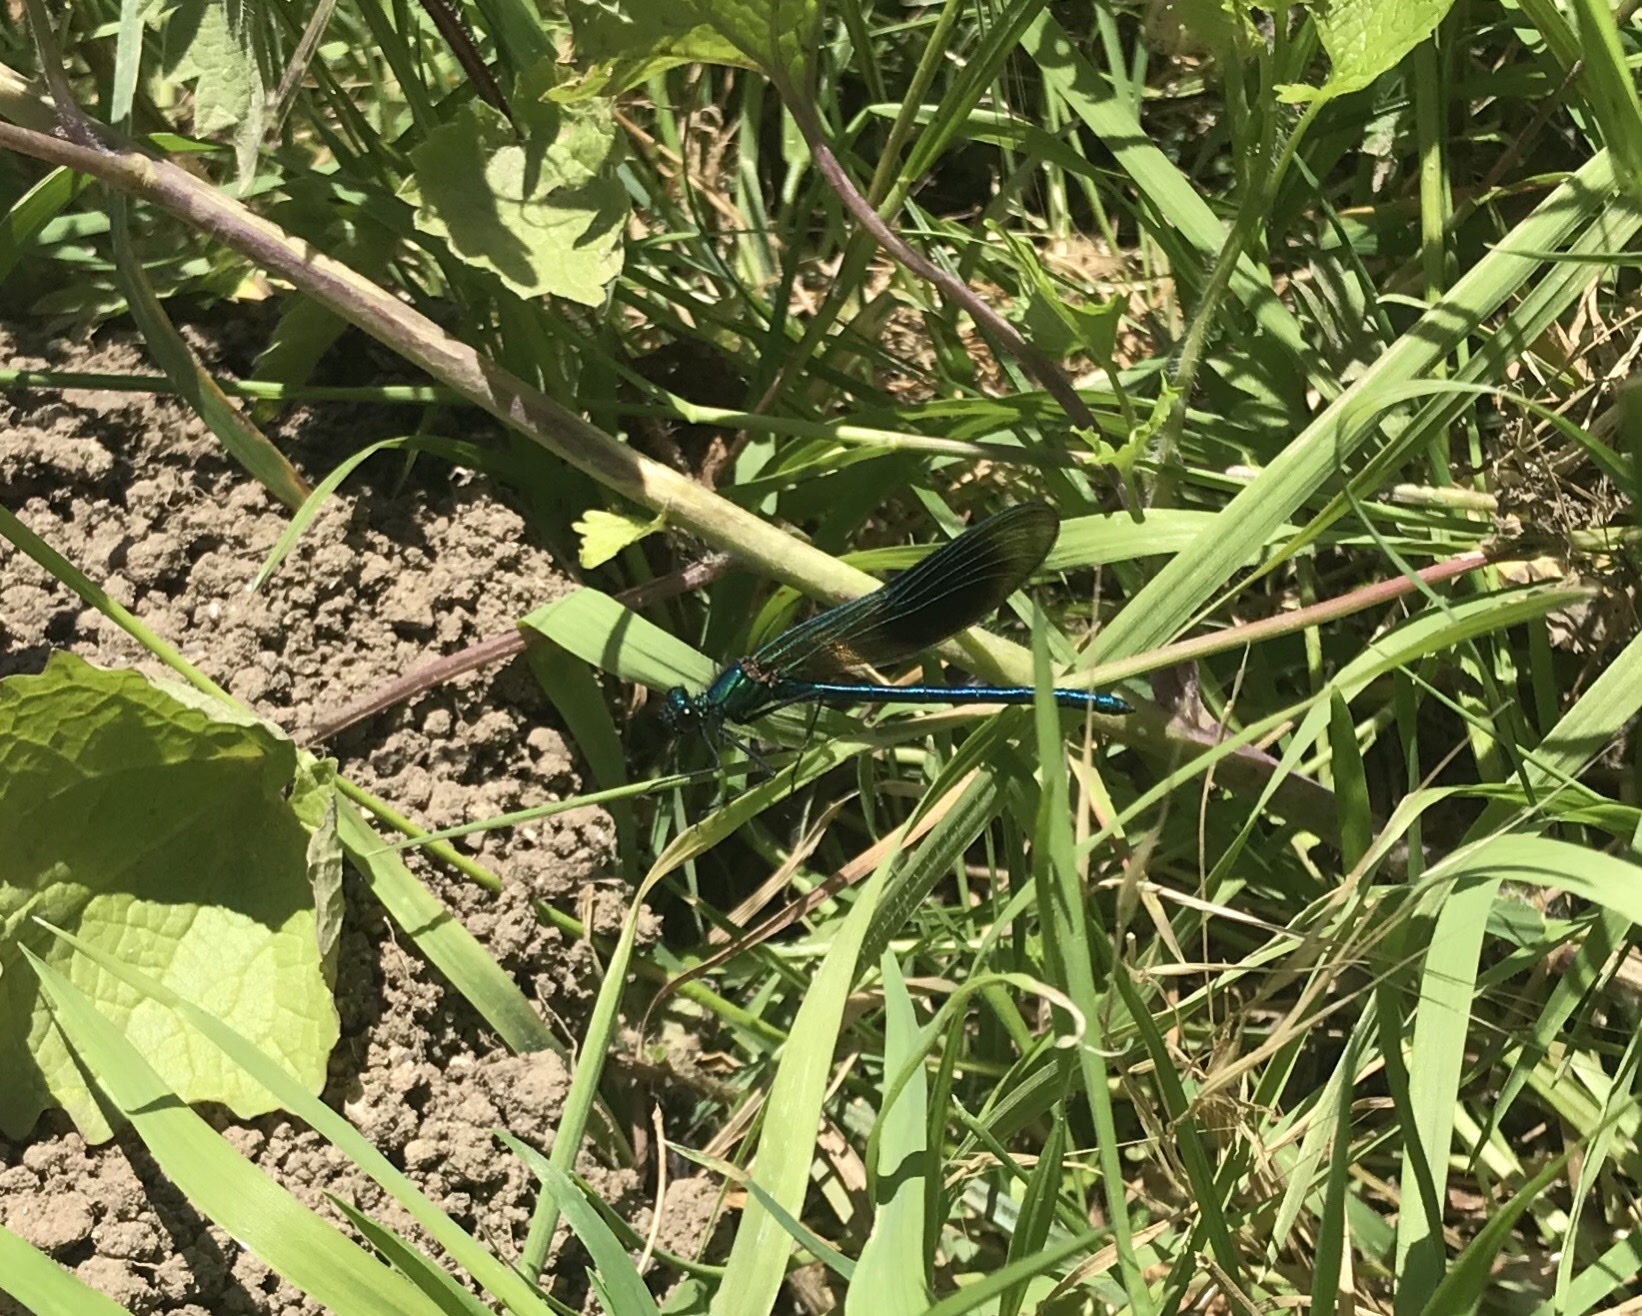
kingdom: Animalia
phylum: Arthropoda
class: Insecta
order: Odonata
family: Calopterygidae
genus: Calopteryx
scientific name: Calopteryx splendens
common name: Banded demoiselle
